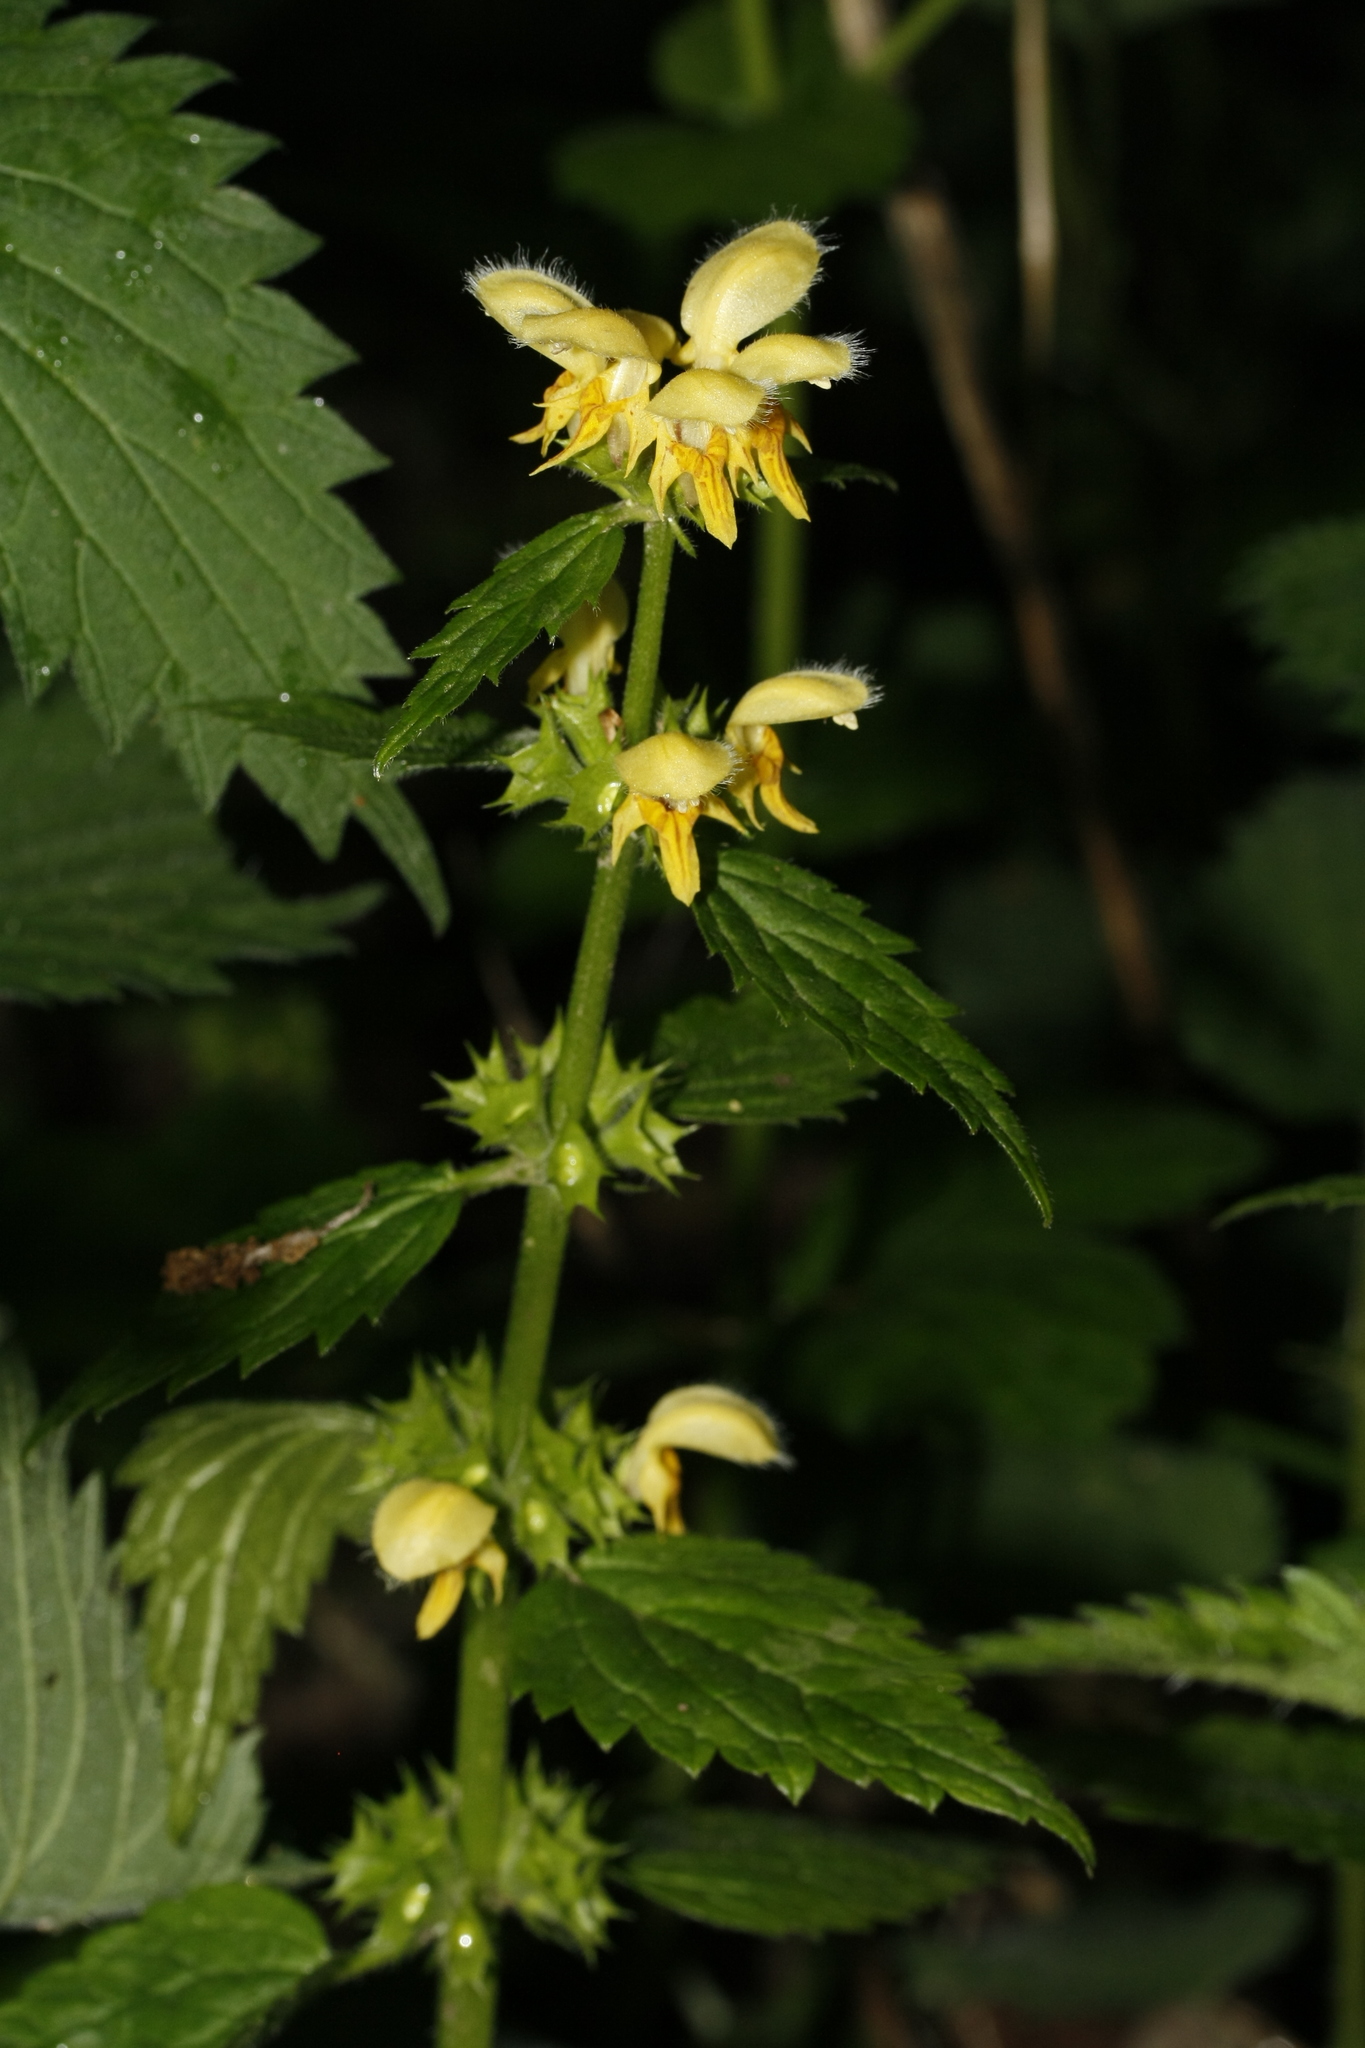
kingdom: Plantae
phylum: Tracheophyta
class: Magnoliopsida
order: Lamiales
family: Lamiaceae
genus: Lamium
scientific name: Lamium galeobdolon
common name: Yellow archangel
